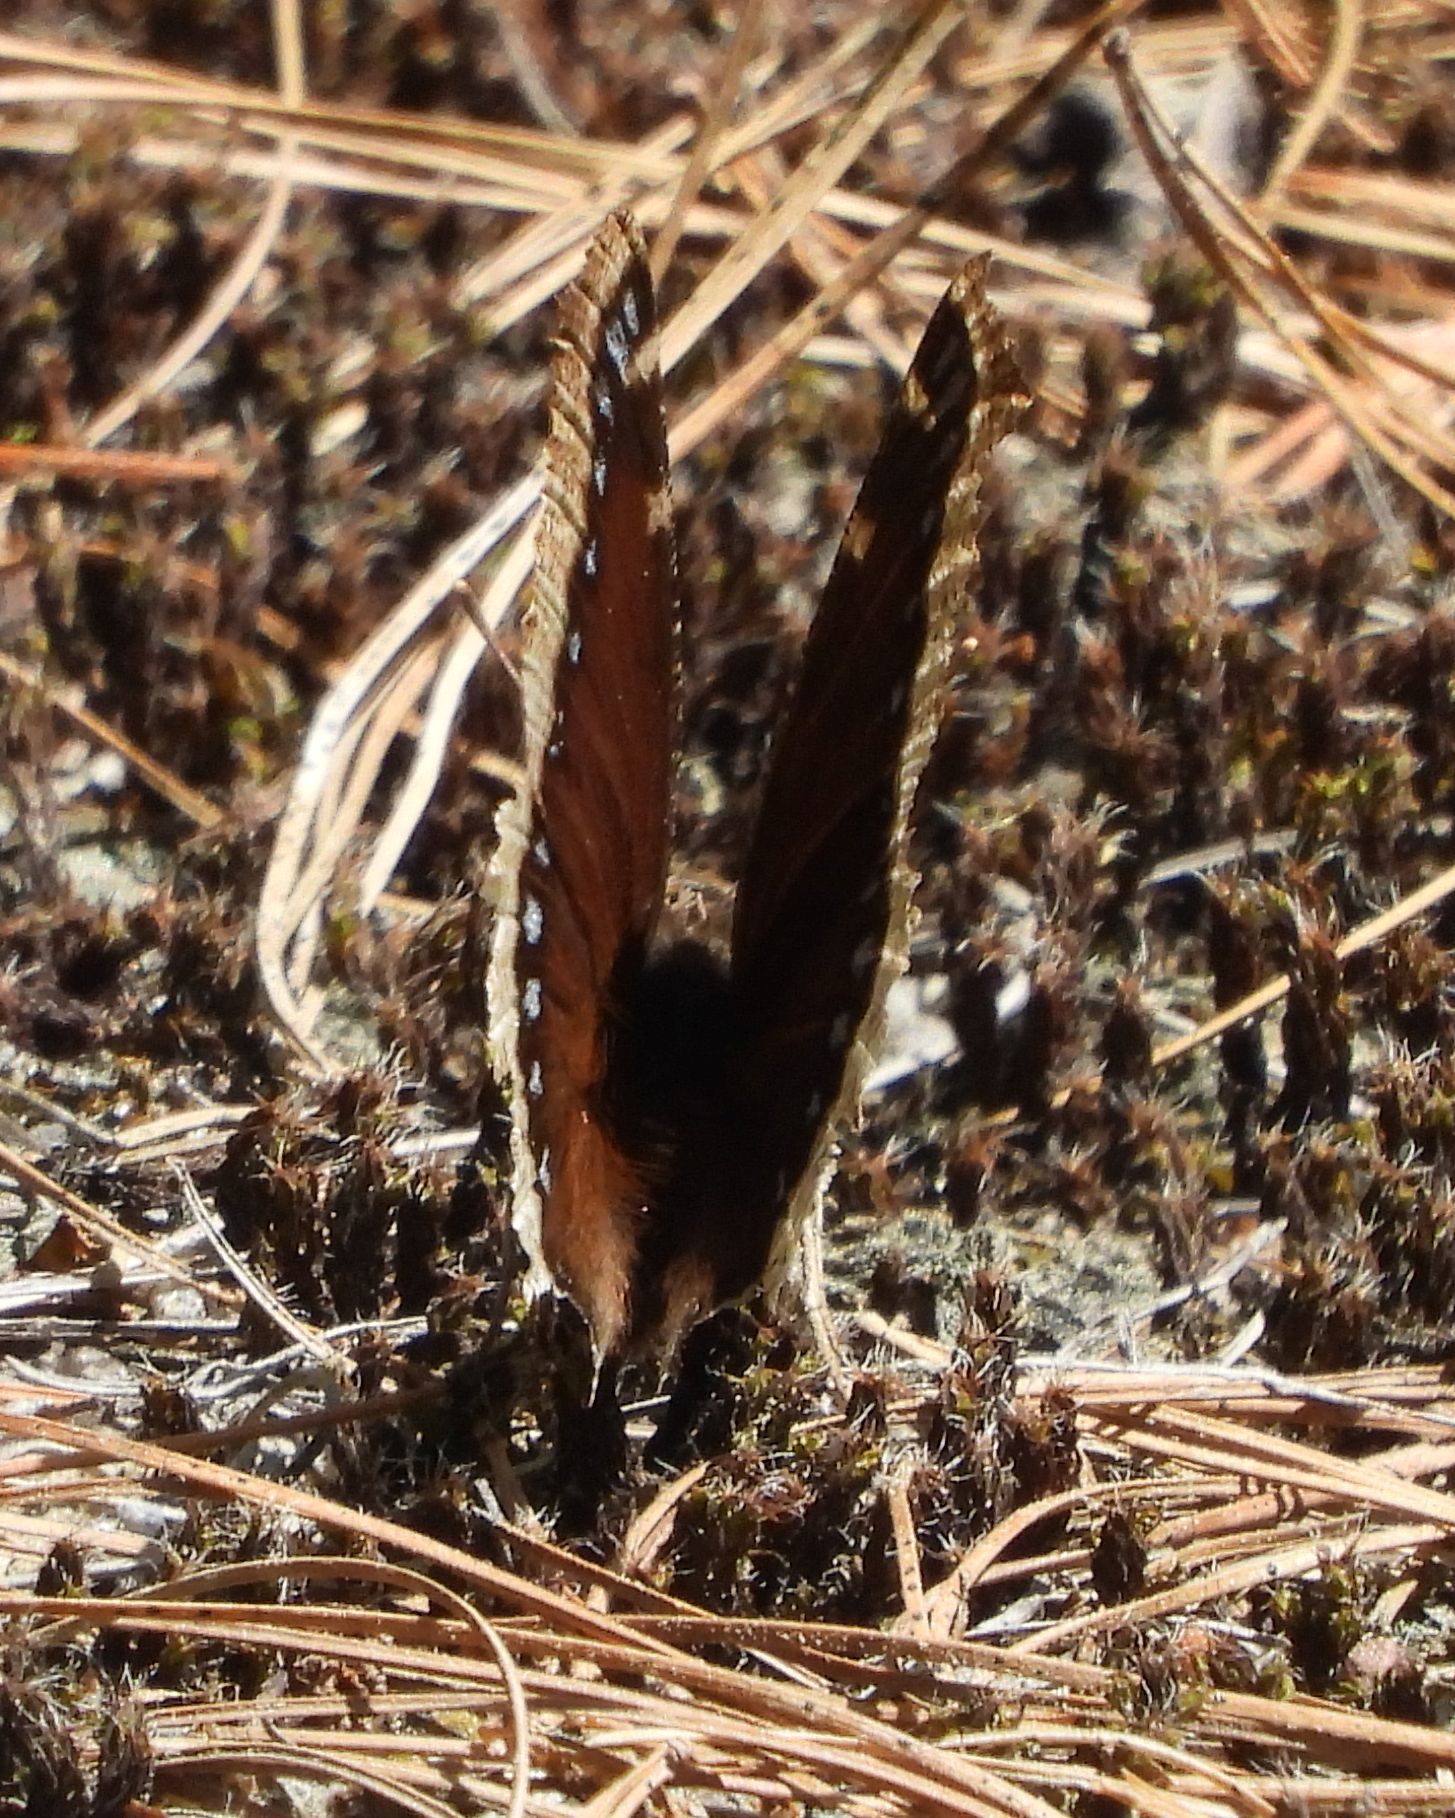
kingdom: Animalia
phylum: Arthropoda
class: Insecta
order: Lepidoptera
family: Nymphalidae
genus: Nymphalis
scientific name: Nymphalis antiopa
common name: Camberwell beauty
